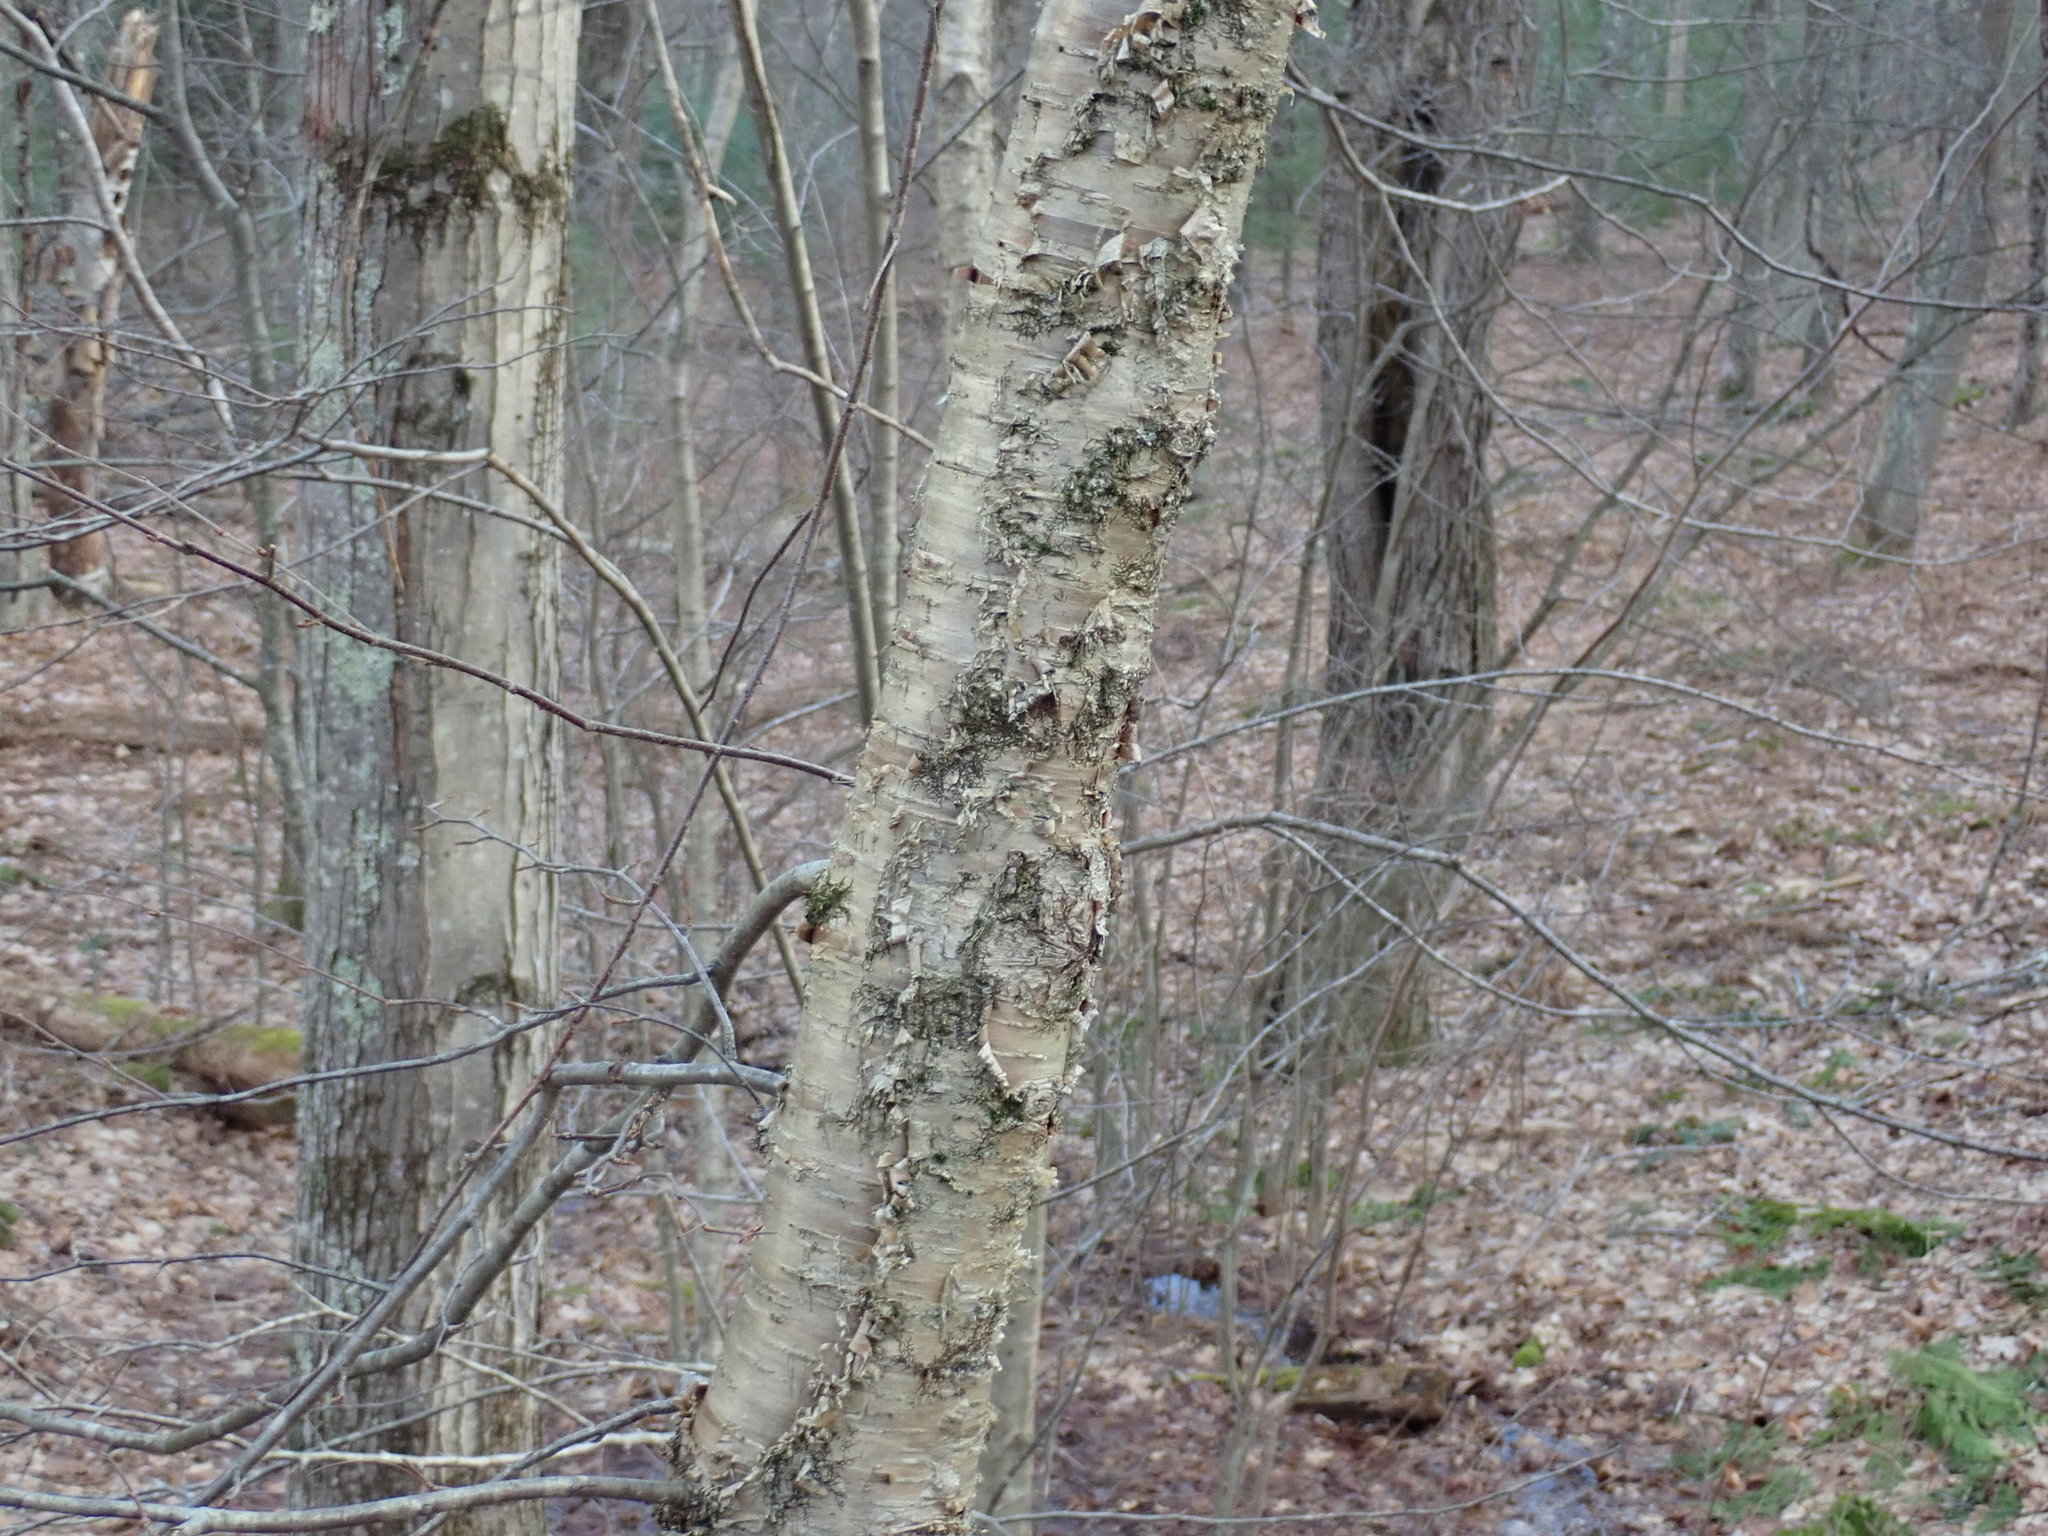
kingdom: Plantae
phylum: Tracheophyta
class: Magnoliopsida
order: Fagales
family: Betulaceae
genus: Betula
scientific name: Betula alleghaniensis
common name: Yellow birch
